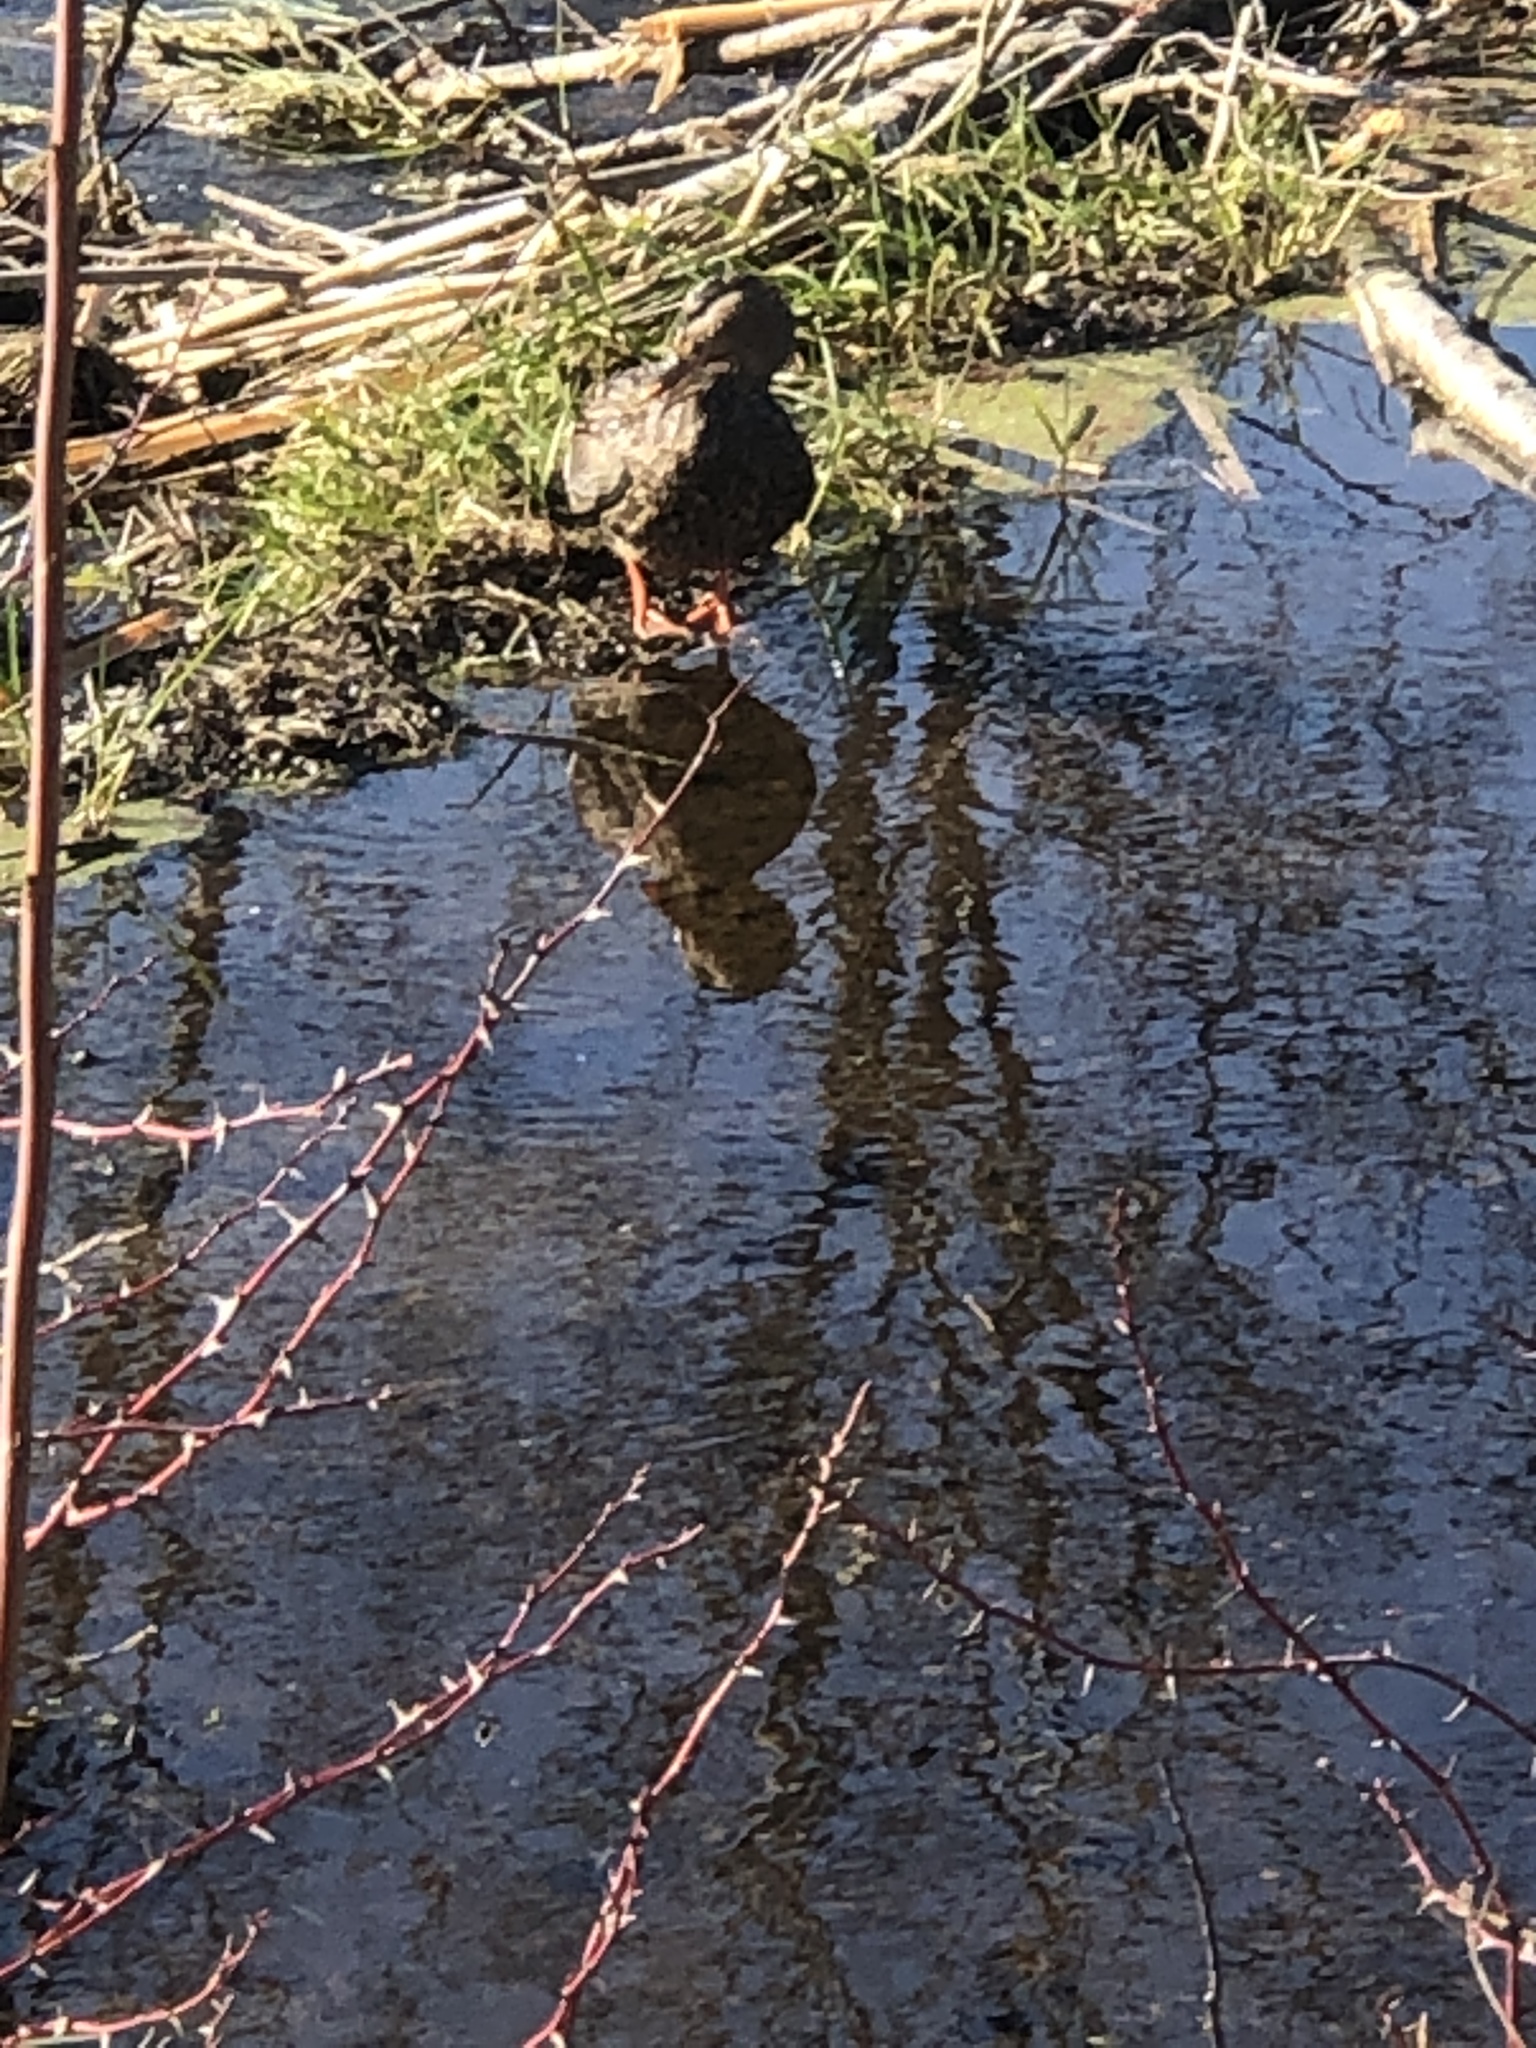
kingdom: Animalia
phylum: Chordata
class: Aves
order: Anseriformes
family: Anatidae
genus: Anas
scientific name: Anas platyrhynchos
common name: Mallard
